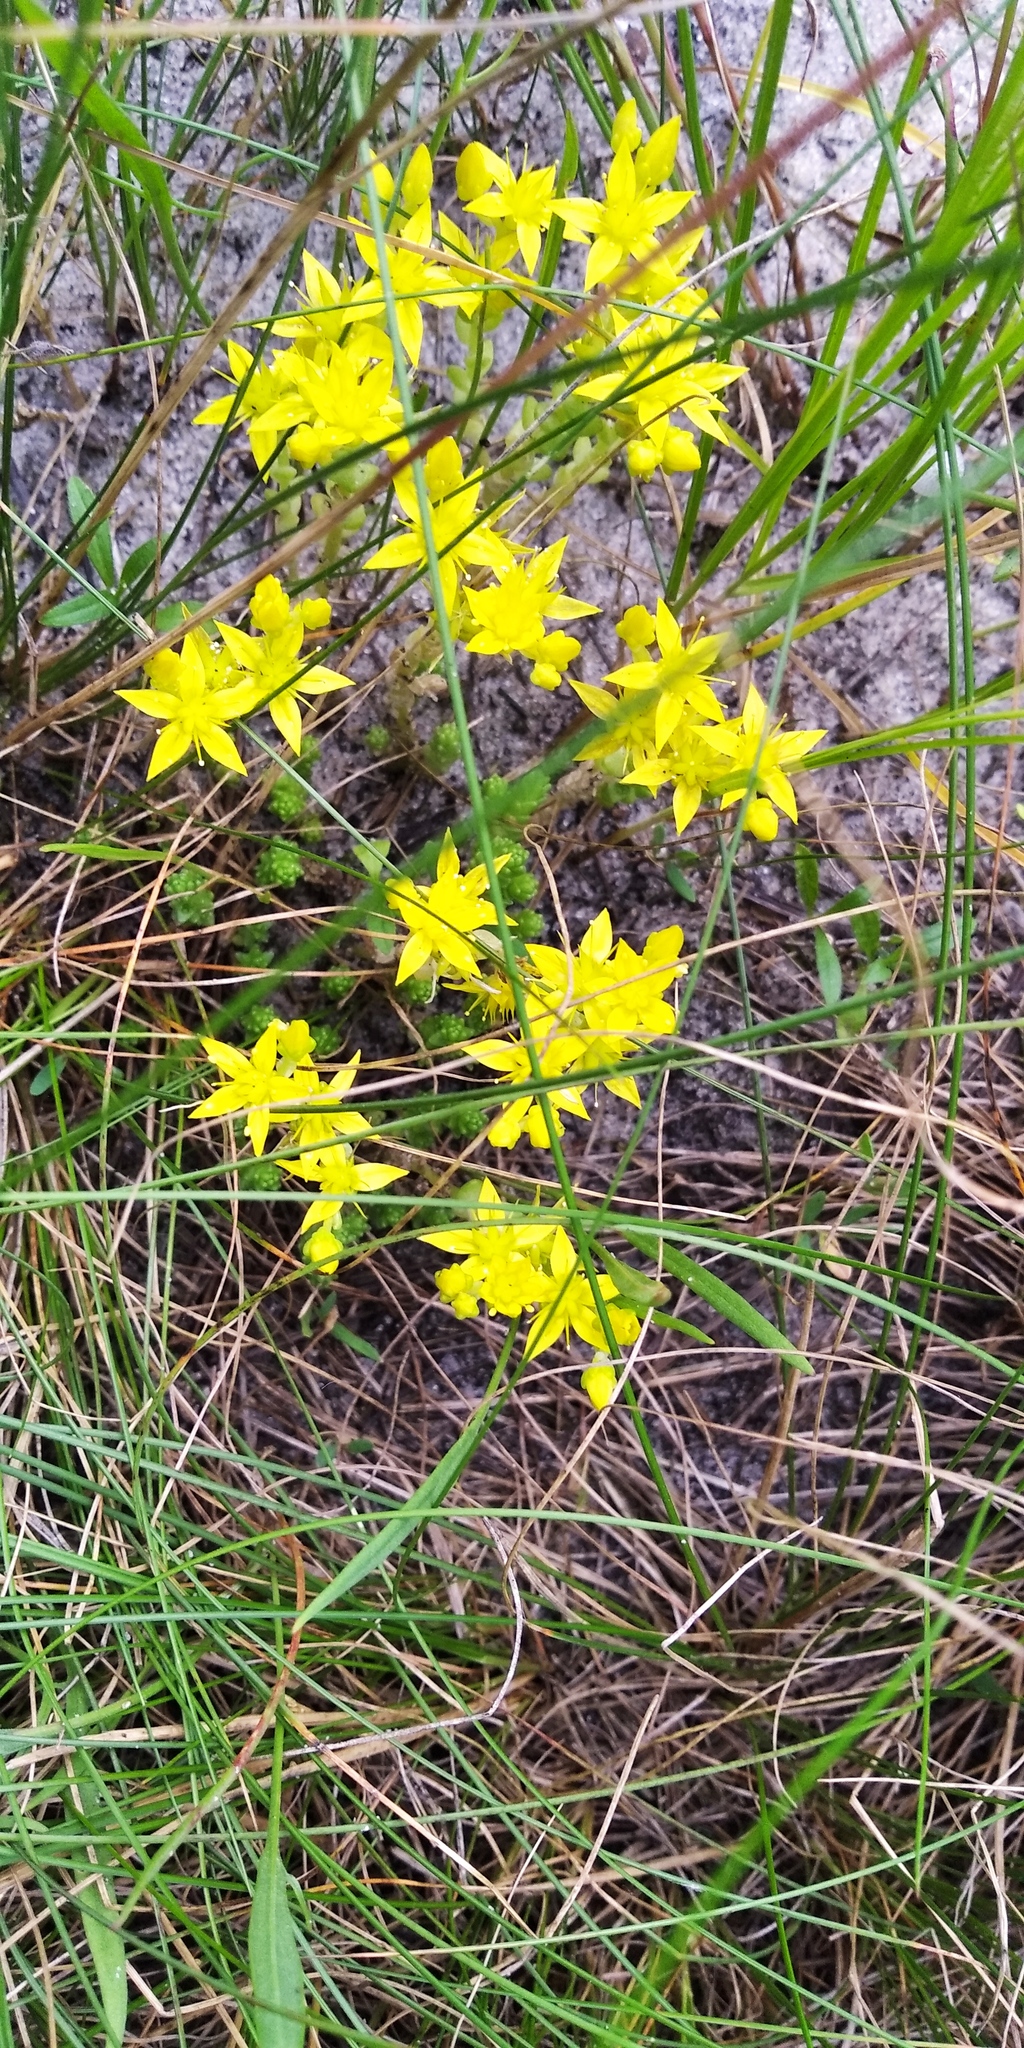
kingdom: Plantae
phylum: Tracheophyta
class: Magnoliopsida
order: Saxifragales
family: Crassulaceae
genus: Sedum
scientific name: Sedum acre
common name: Biting stonecrop
